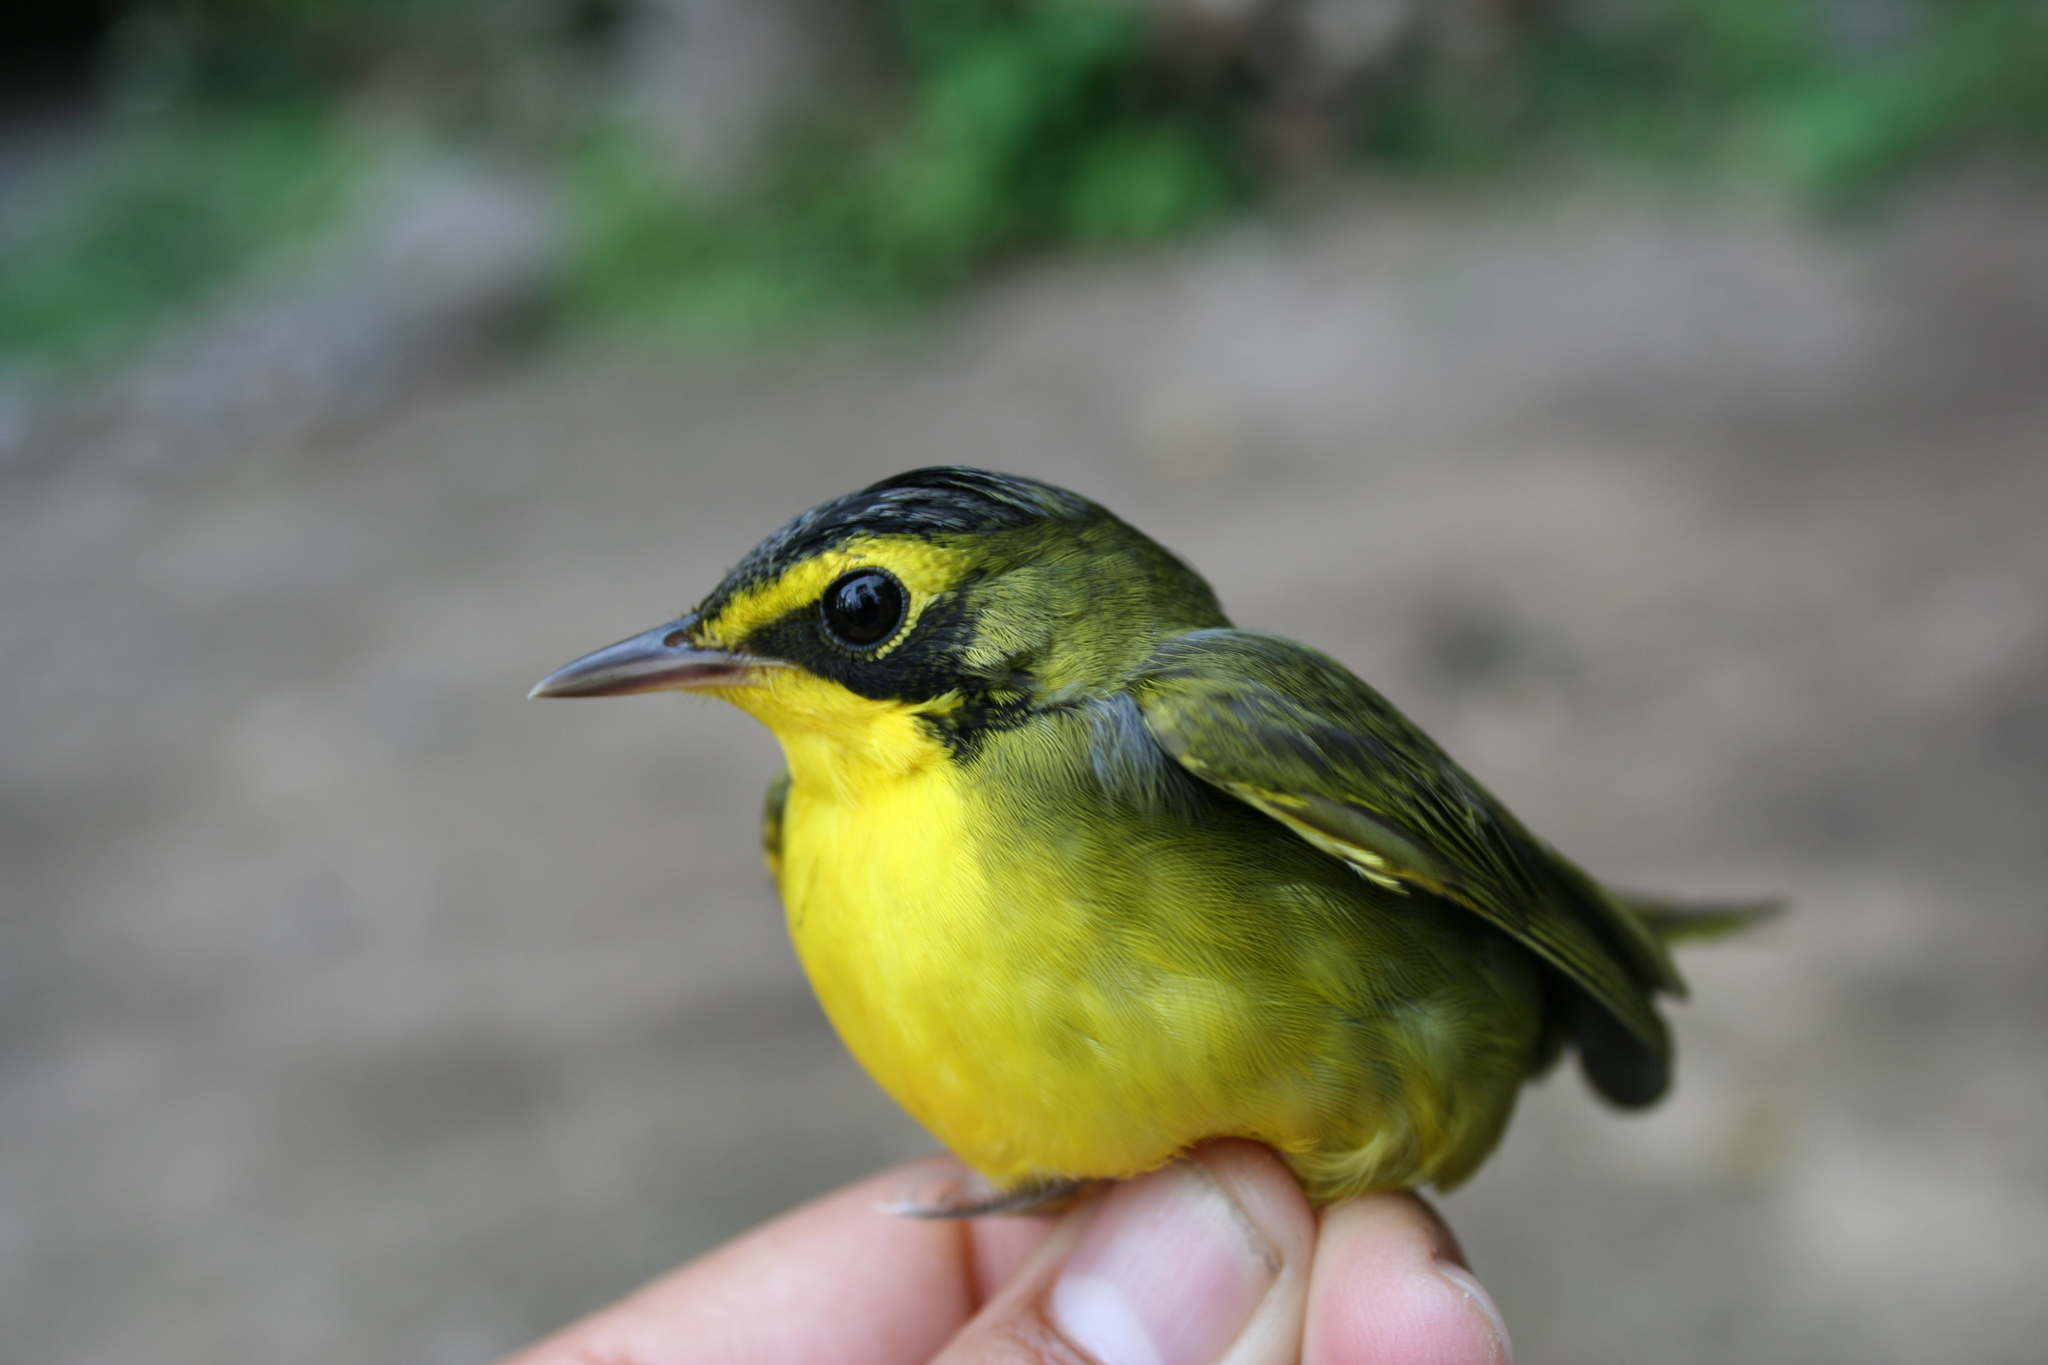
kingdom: Animalia
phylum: Chordata
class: Aves
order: Passeriformes
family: Parulidae
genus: Geothlypis
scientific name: Geothlypis formosa
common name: Kentucky warbler
